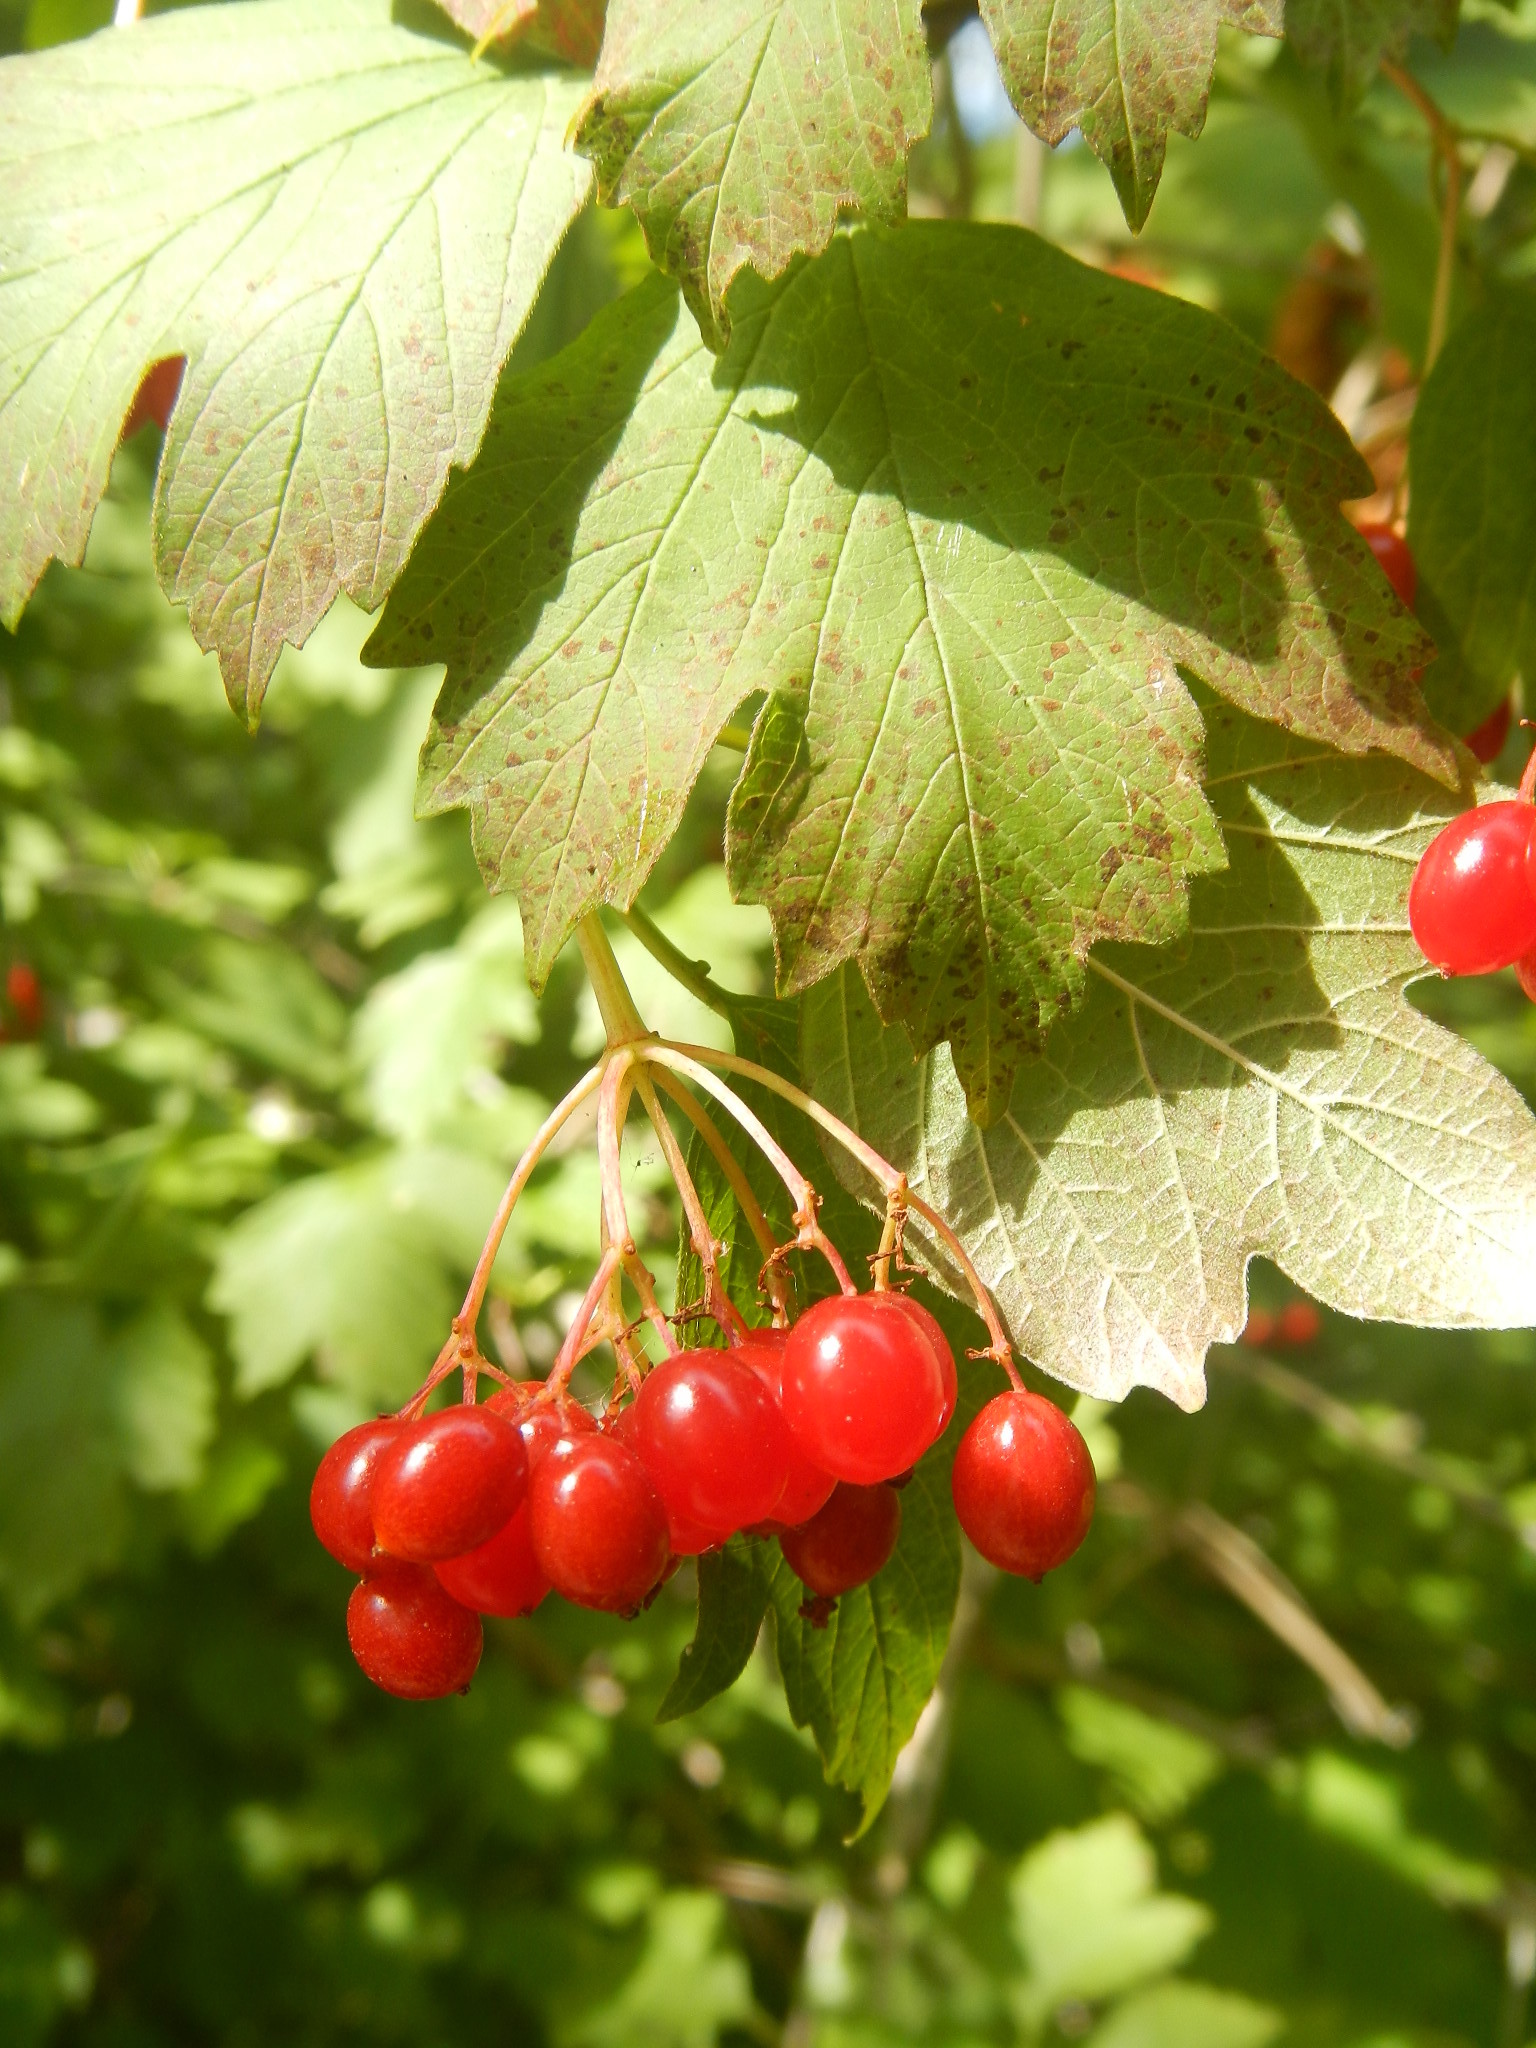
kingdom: Plantae
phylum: Tracheophyta
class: Magnoliopsida
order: Dipsacales
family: Viburnaceae
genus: Viburnum
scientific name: Viburnum opulus
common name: Guelder-rose
